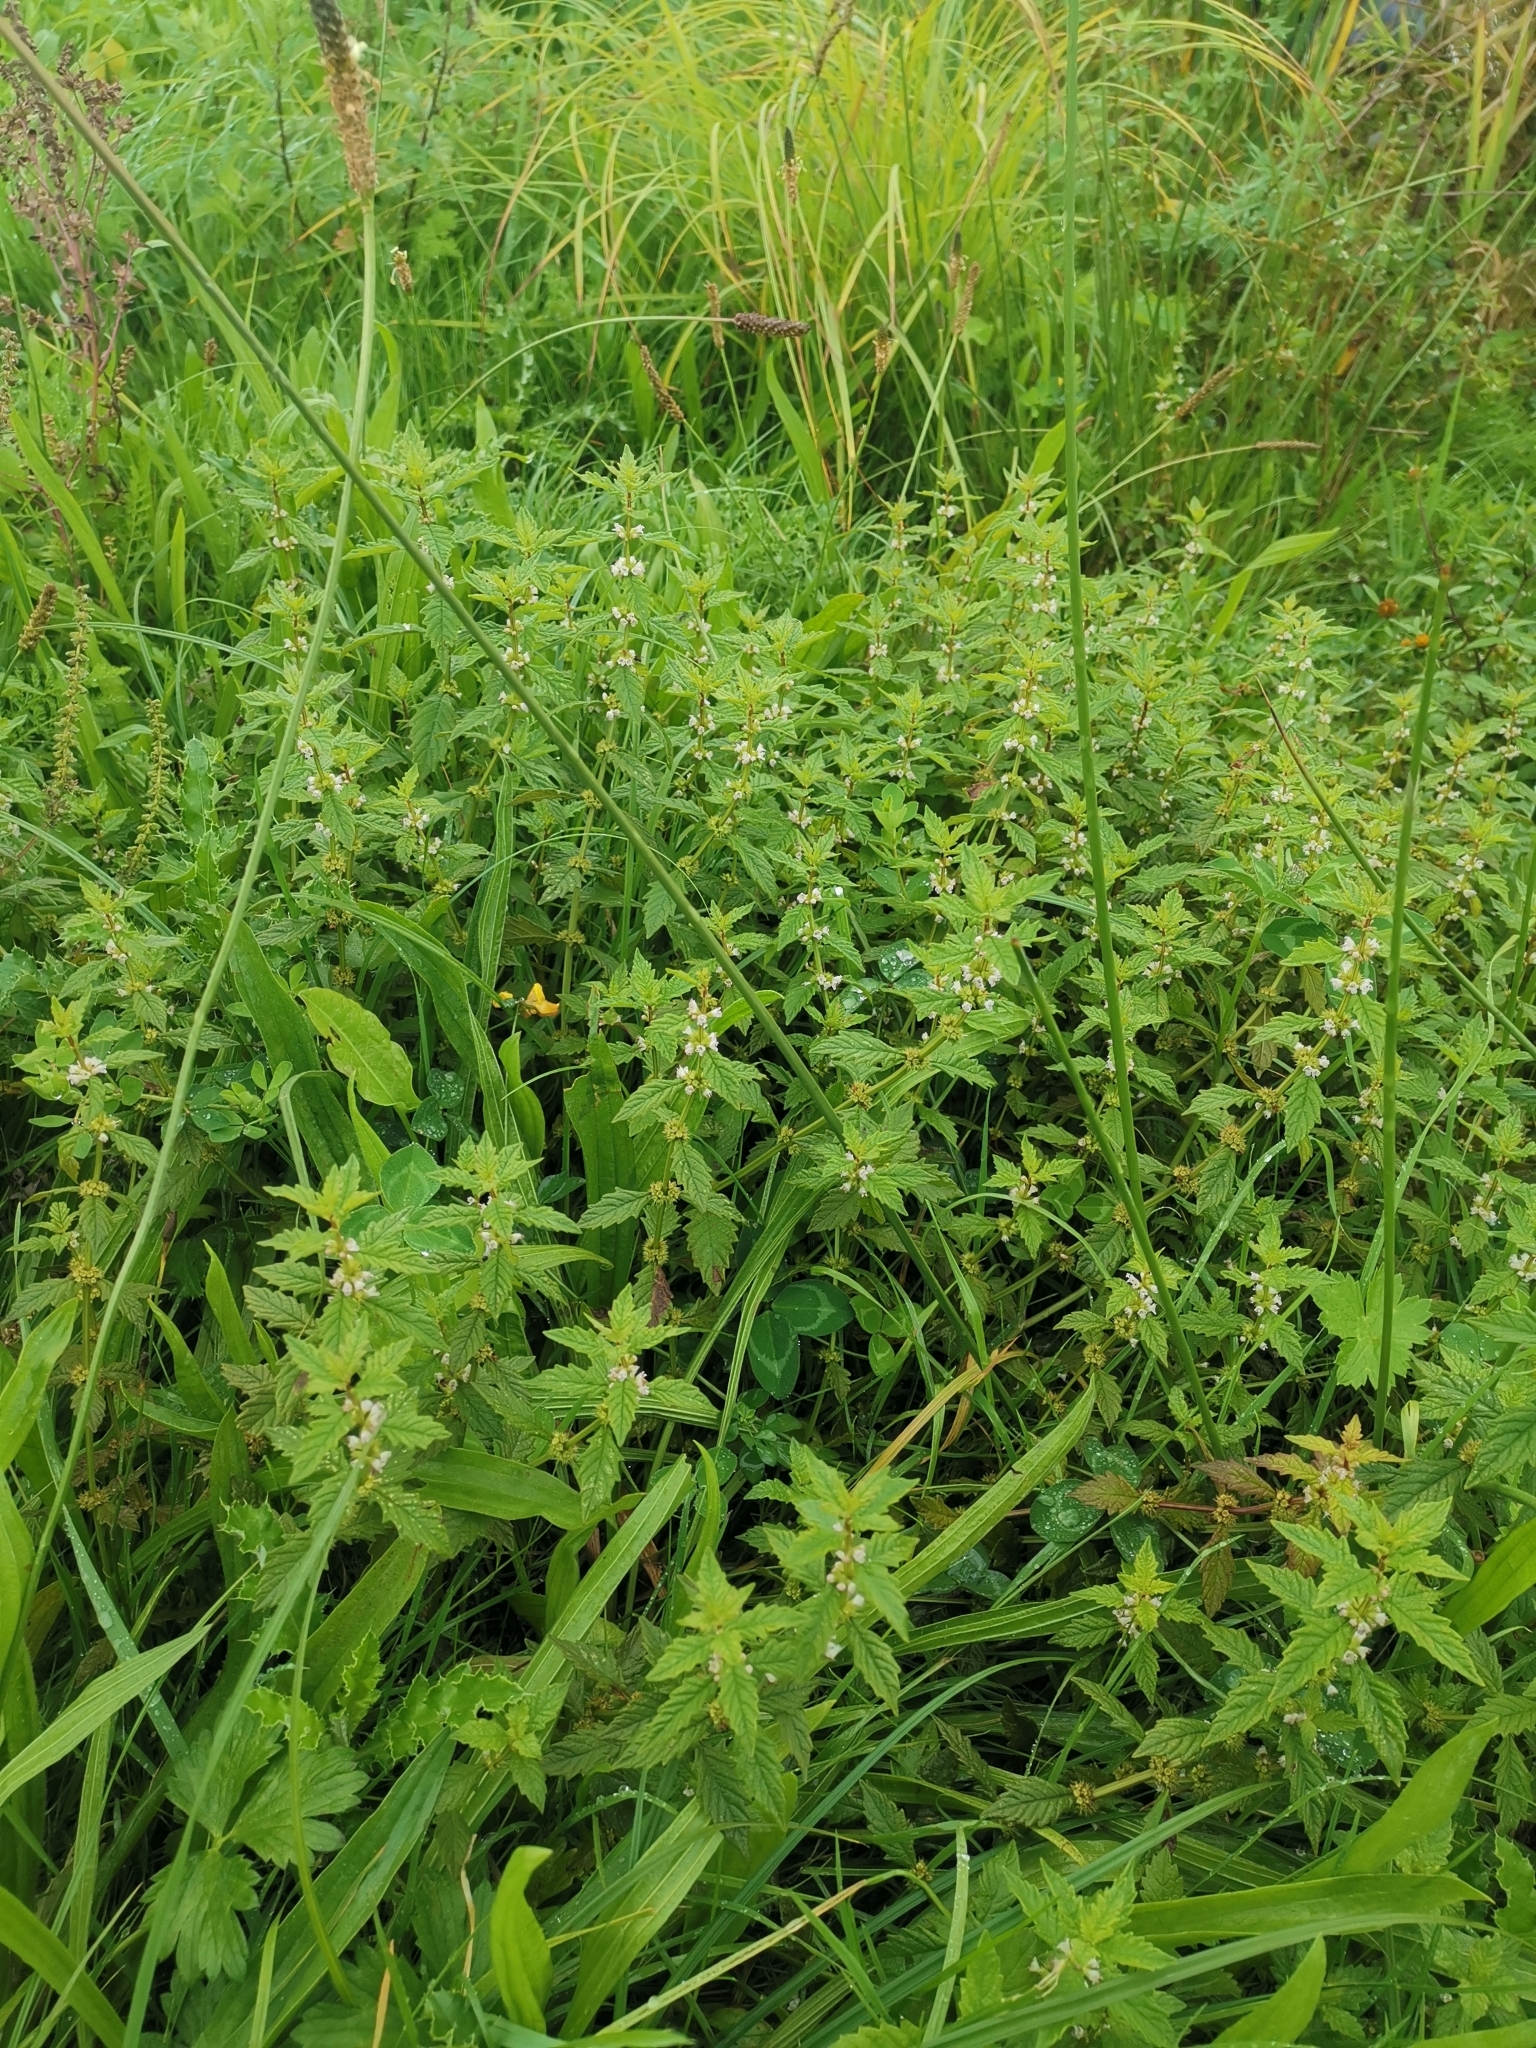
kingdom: Plantae
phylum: Tracheophyta
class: Magnoliopsida
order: Lamiales
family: Lamiaceae
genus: Lycopus
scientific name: Lycopus europaeus
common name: European bugleweed
